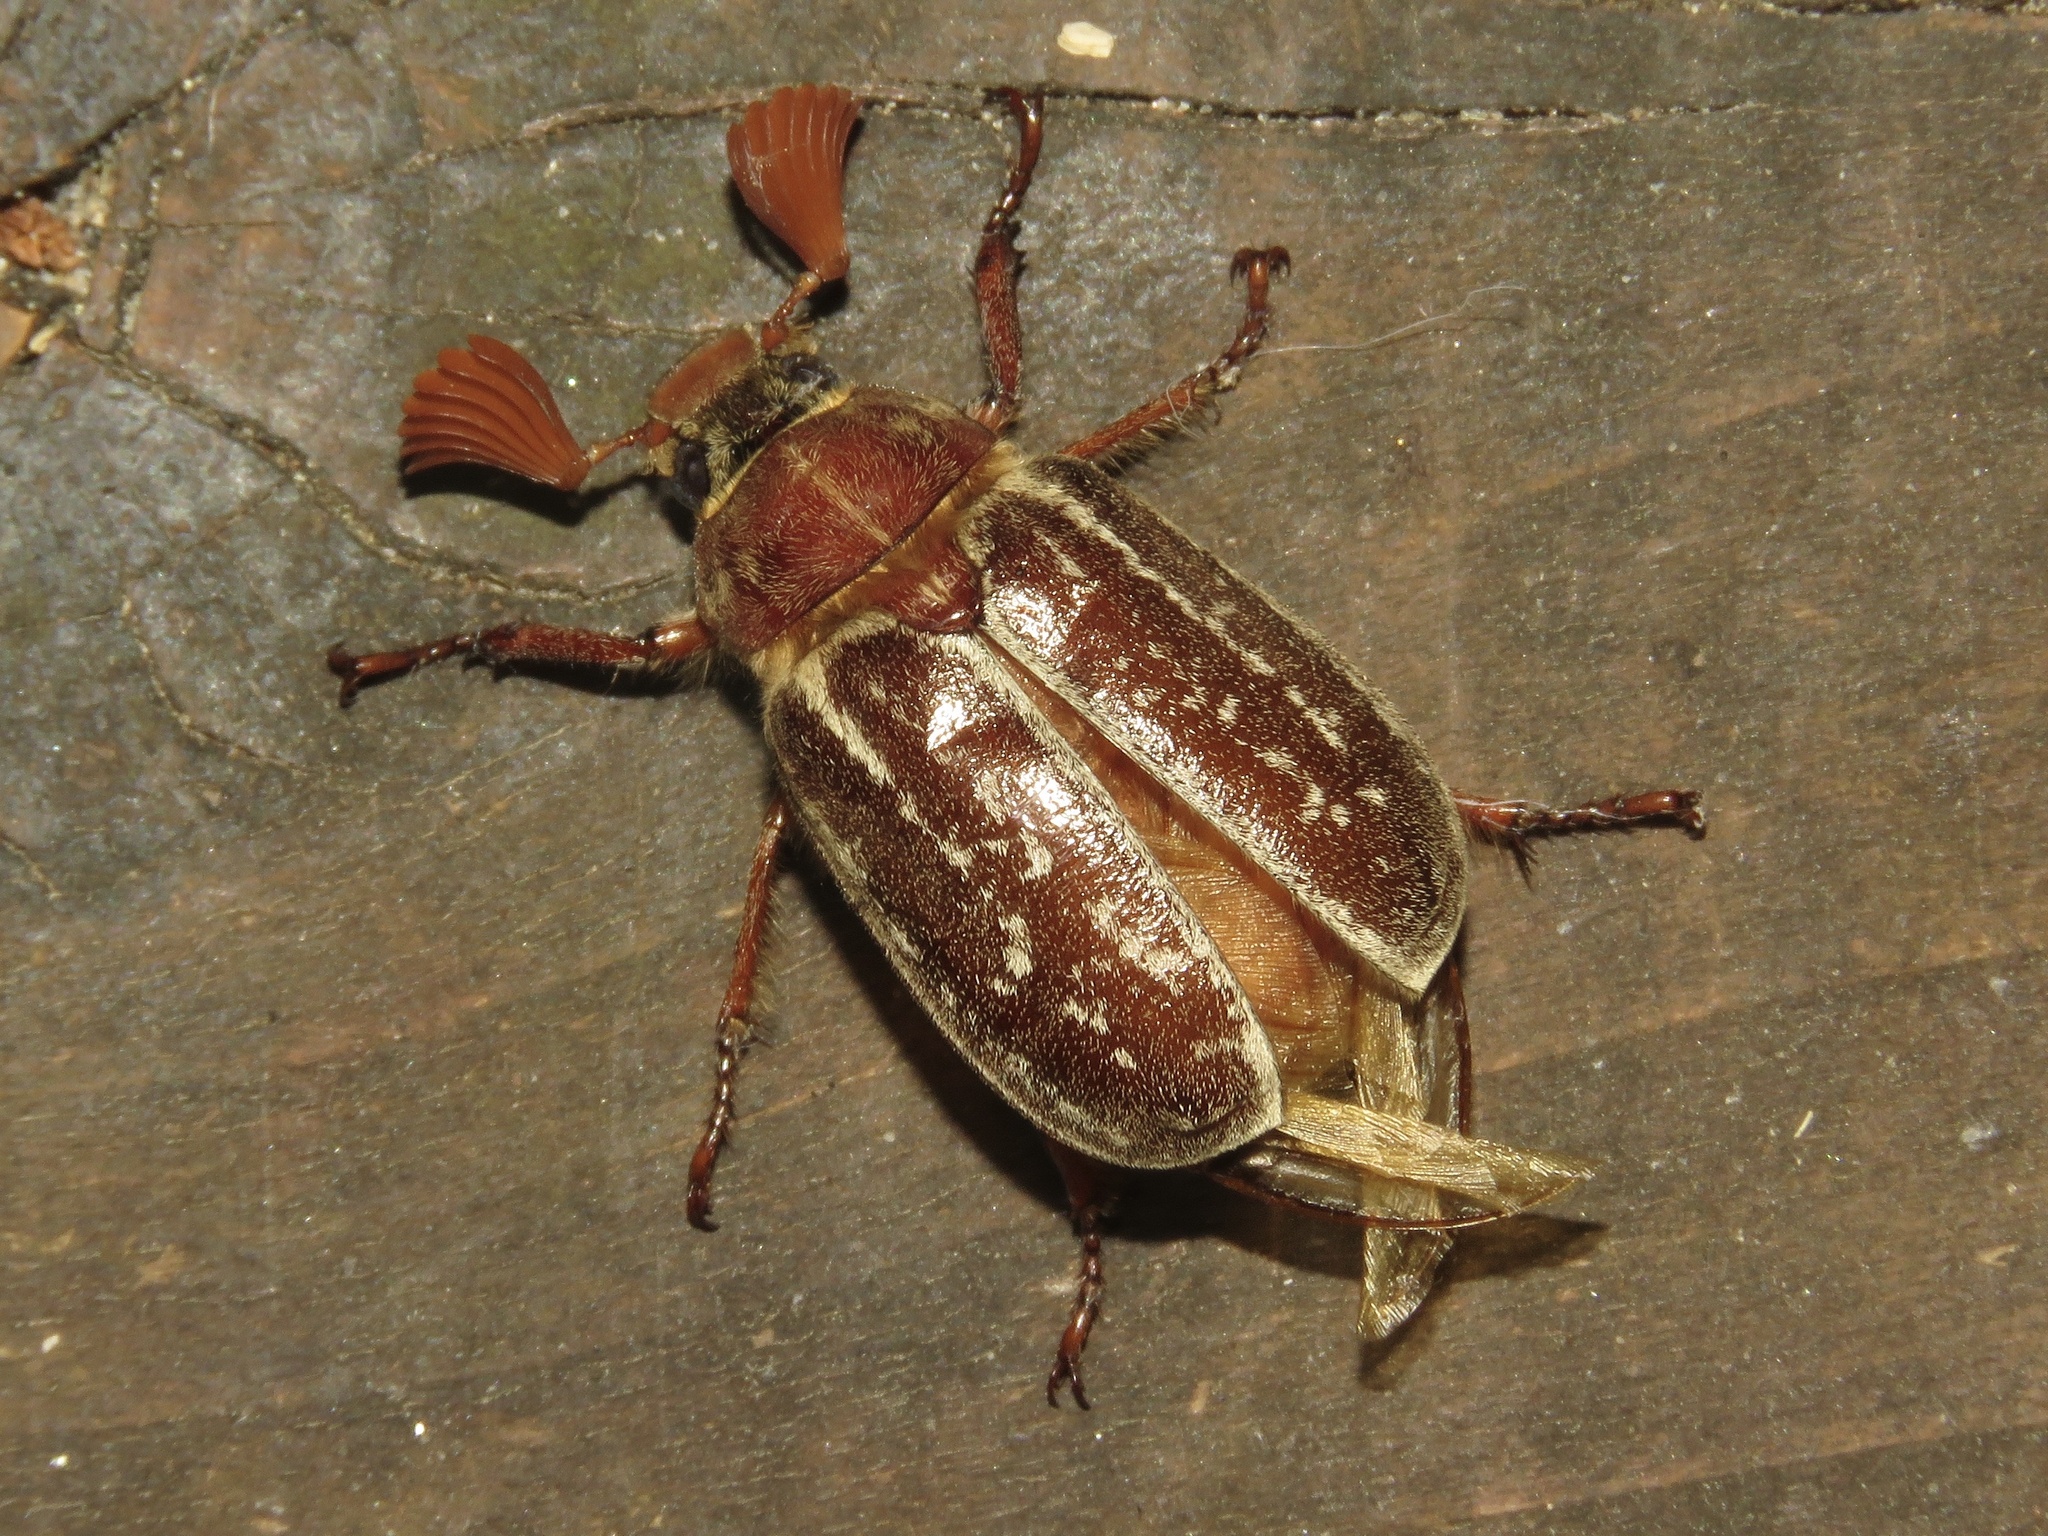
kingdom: Animalia
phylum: Arthropoda
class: Insecta
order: Coleoptera
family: Scarabaeidae
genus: Polyphylla
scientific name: Polyphylla variolosa
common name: Variegated june beetle
